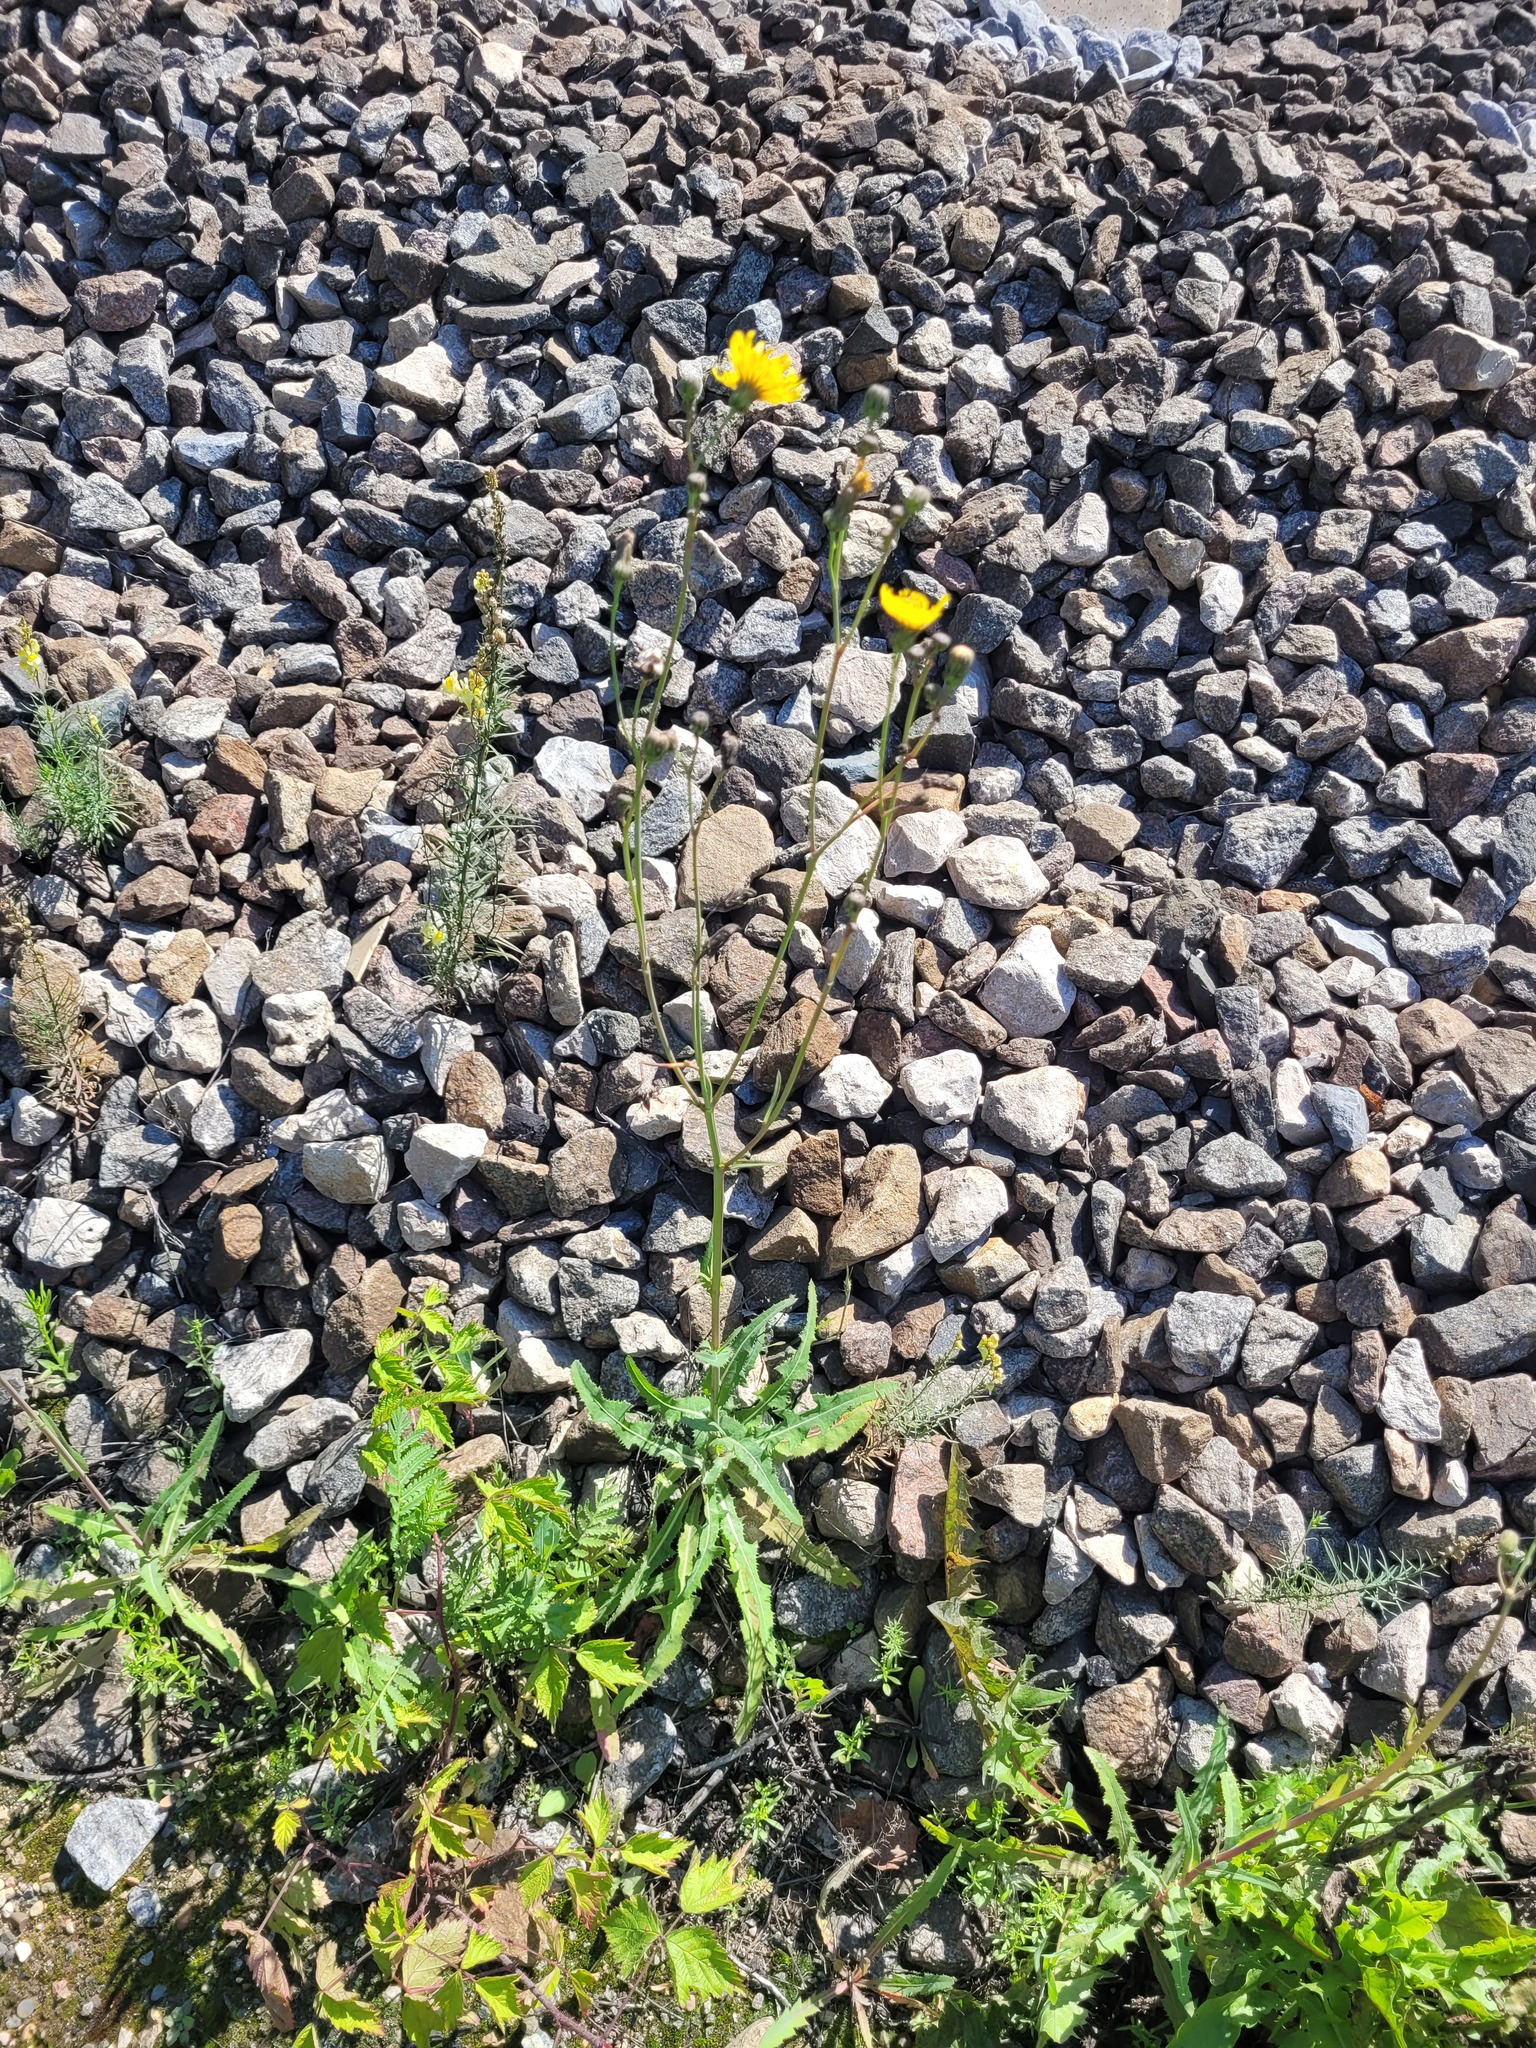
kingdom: Plantae
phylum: Tracheophyta
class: Magnoliopsida
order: Asterales
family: Asteraceae
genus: Sonchus
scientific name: Sonchus arvensis
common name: Perennial sow-thistle
